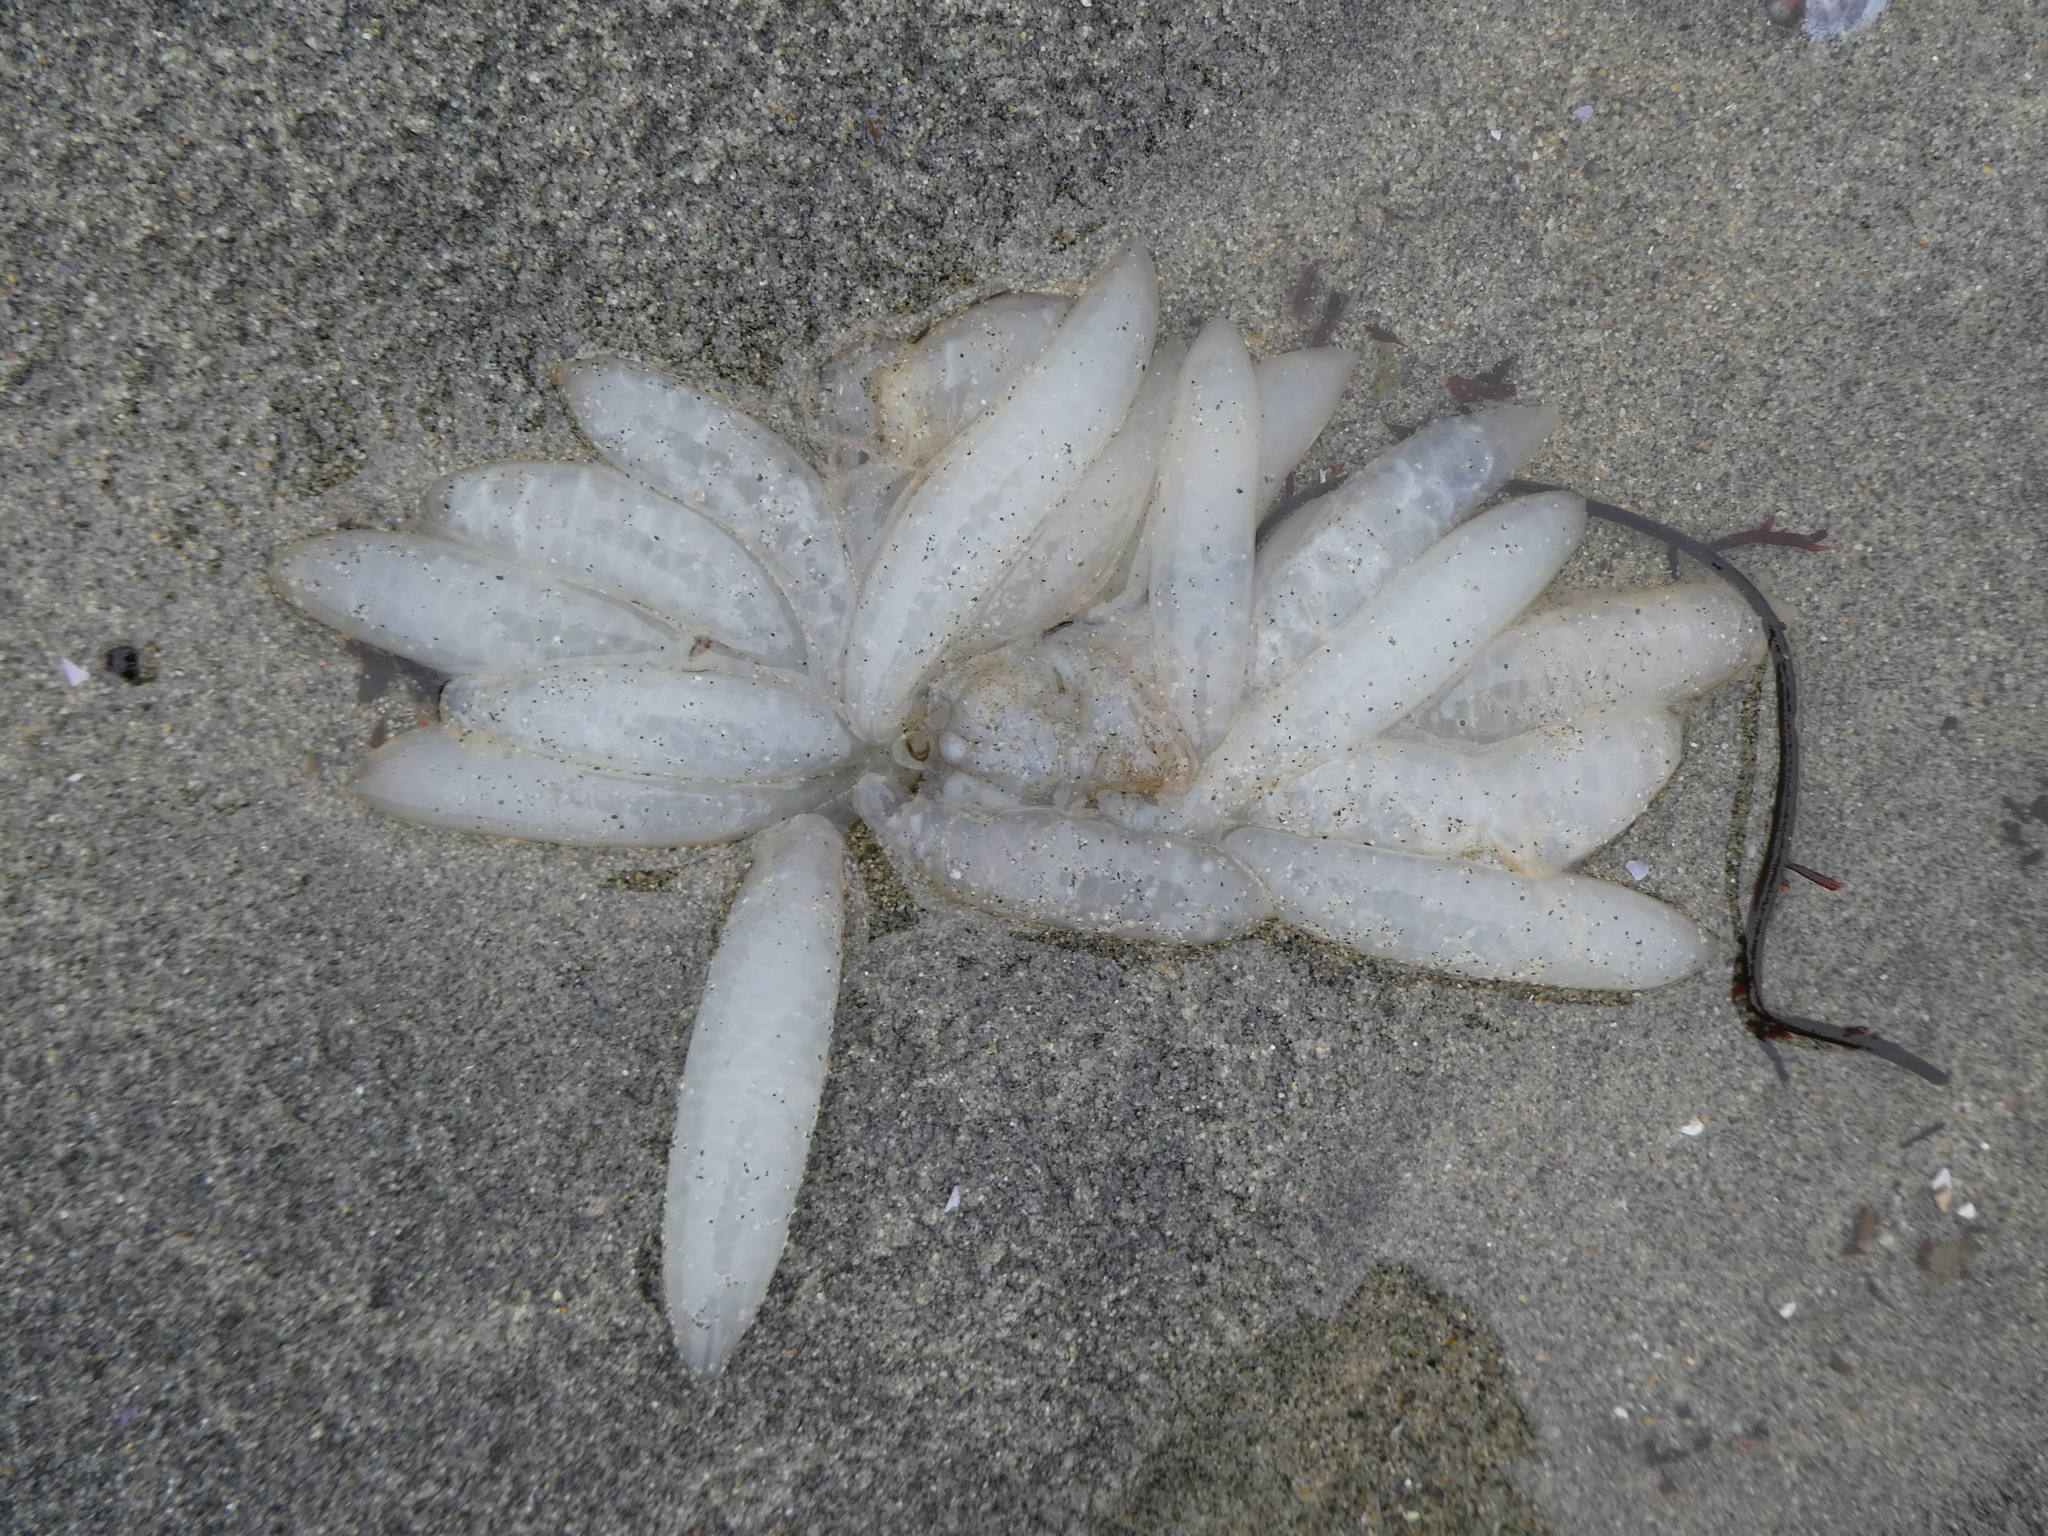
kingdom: Animalia
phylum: Mollusca
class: Cephalopoda
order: Myopsida
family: Loliginidae
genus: Doryteuthis
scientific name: Doryteuthis opalescens
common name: Opalescent inshore squid
